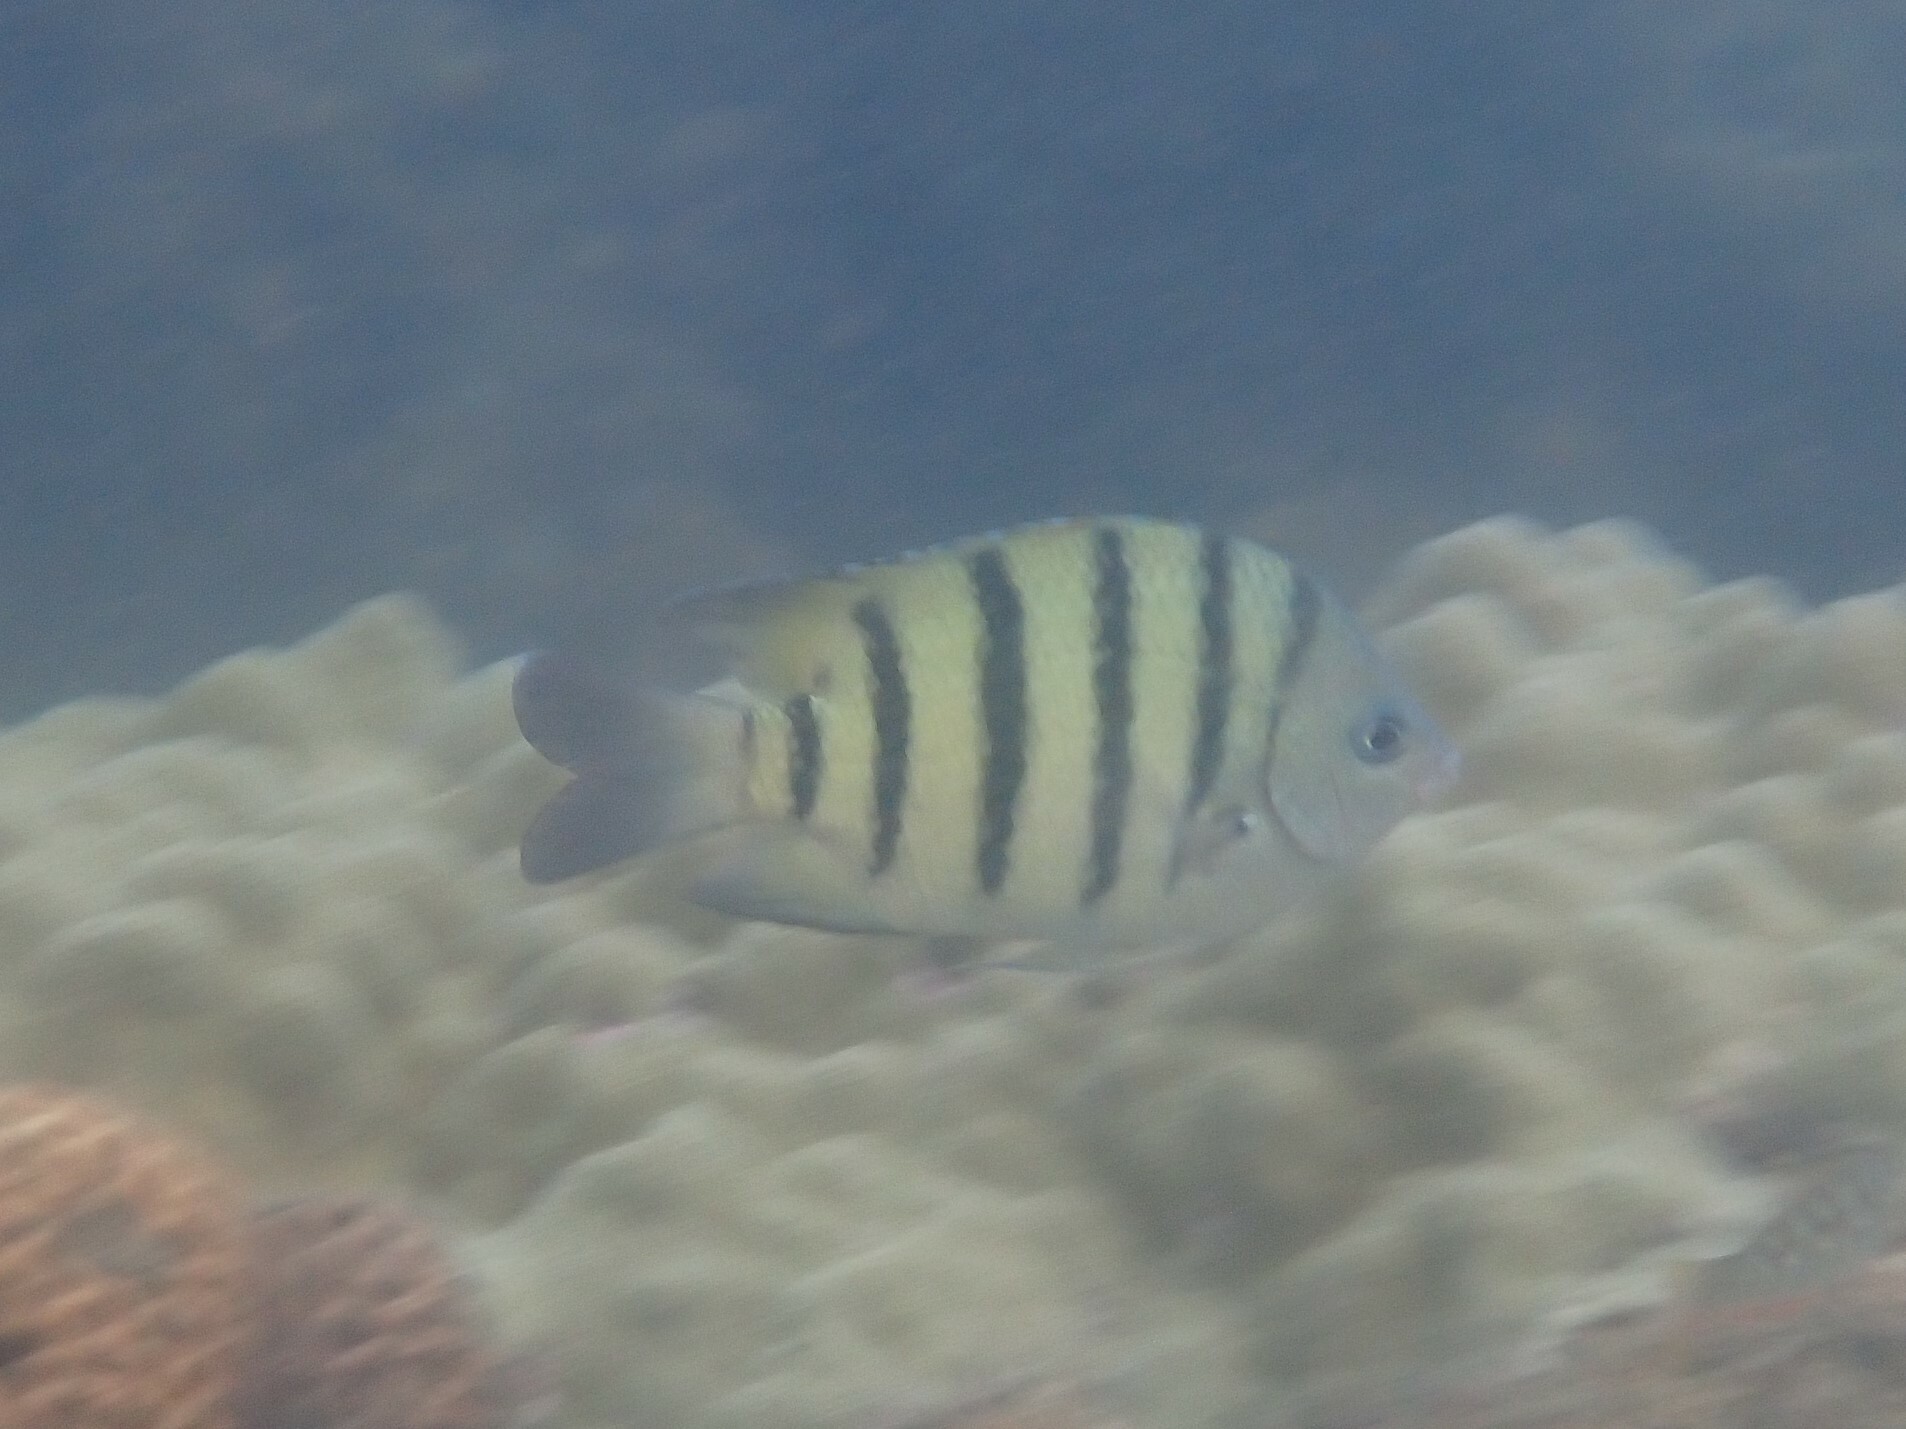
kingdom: Animalia
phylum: Chordata
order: Perciformes
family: Pomacentridae
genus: Abudefduf
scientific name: Abudefduf bengalensis
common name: Bengal sergeant
